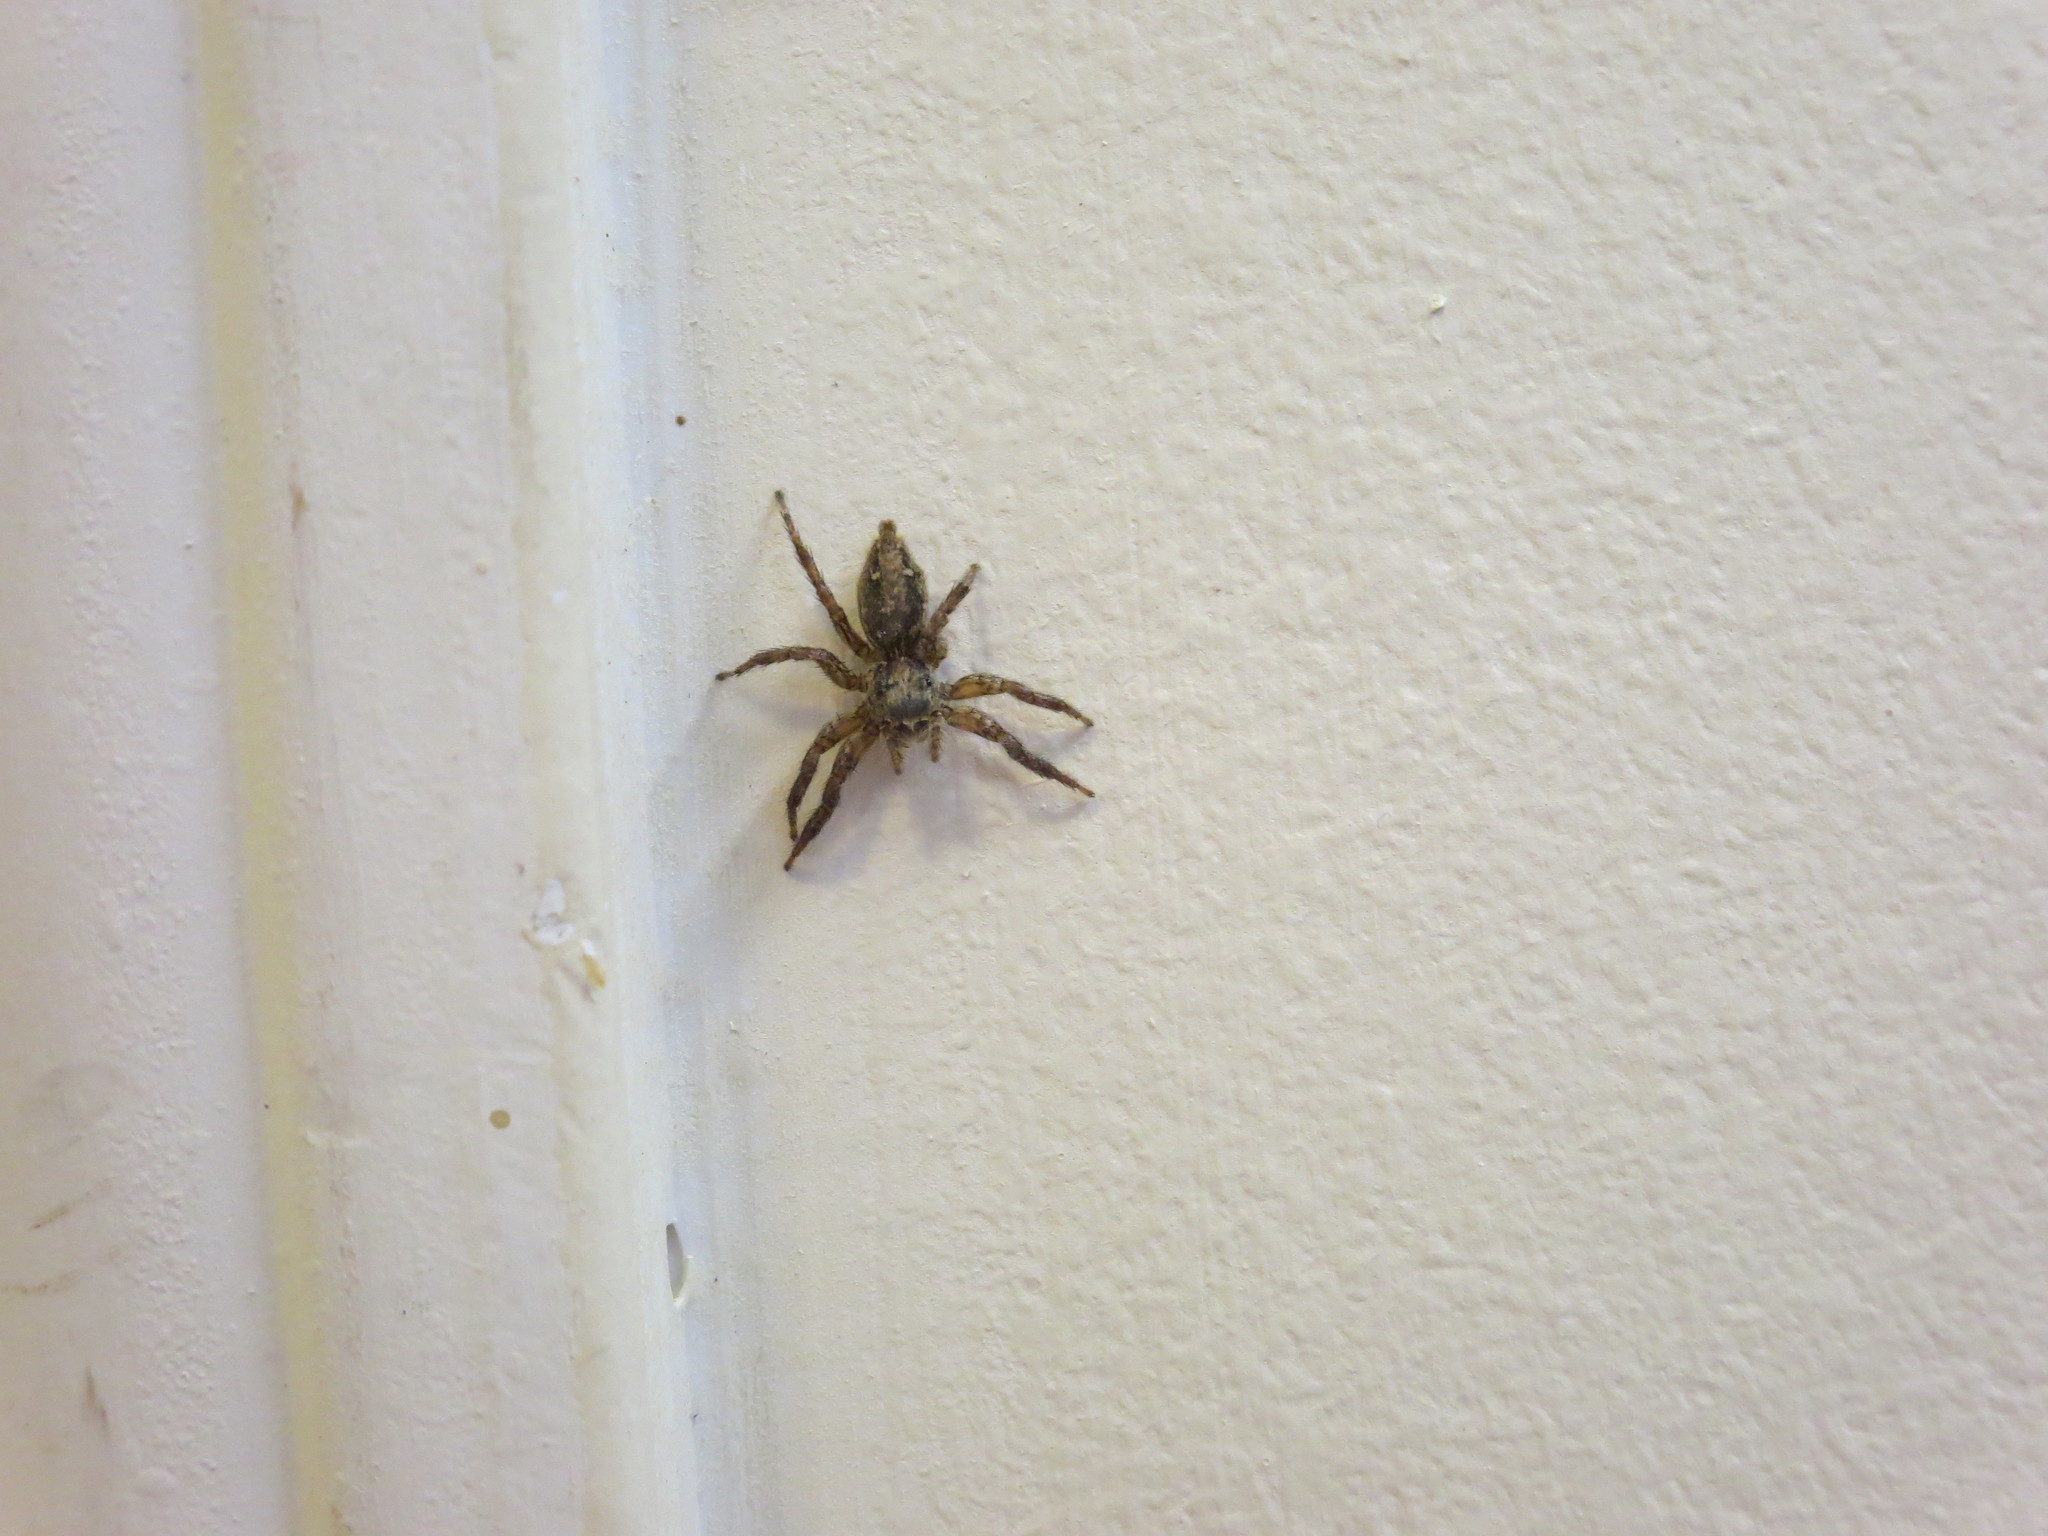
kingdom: Animalia
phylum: Arthropoda
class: Arachnida
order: Araneae
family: Salticidae
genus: Plexippus
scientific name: Plexippus paykulli
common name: Pantropical jumper
